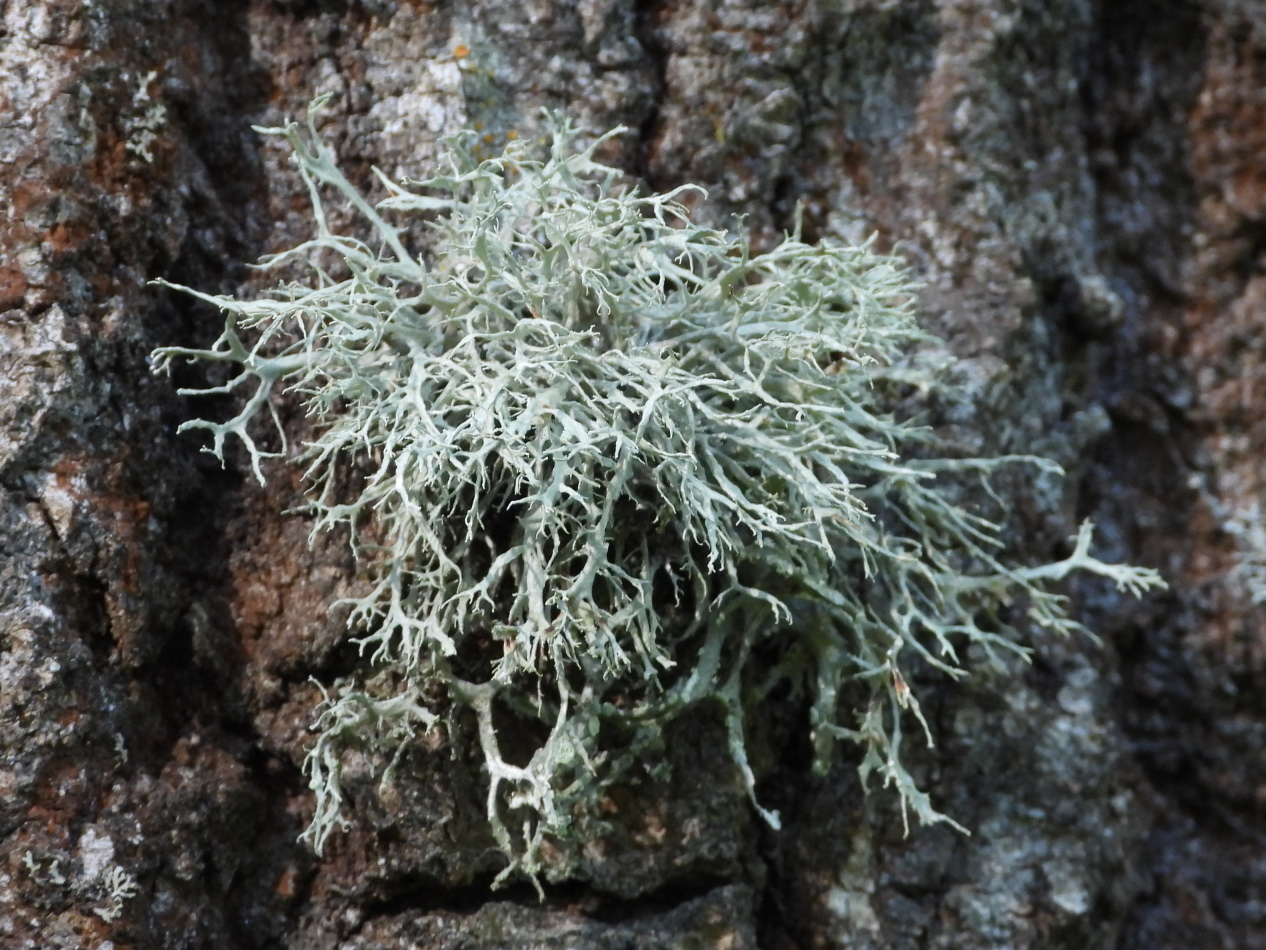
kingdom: Fungi
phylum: Ascomycota
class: Lecanoromycetes
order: Lecanorales
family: Ramalinaceae
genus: Ramalina
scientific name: Ramalina farinacea
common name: Farinose cartilage lichen
